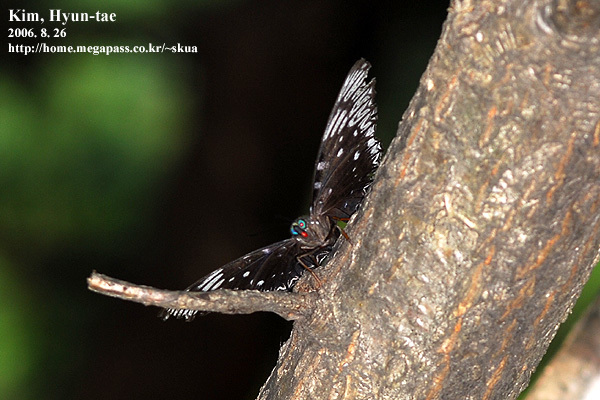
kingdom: Animalia
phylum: Arthropoda
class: Insecta
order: Lepidoptera
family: Nymphalidae
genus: Dichorragia
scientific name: Dichorragia nesimachus
